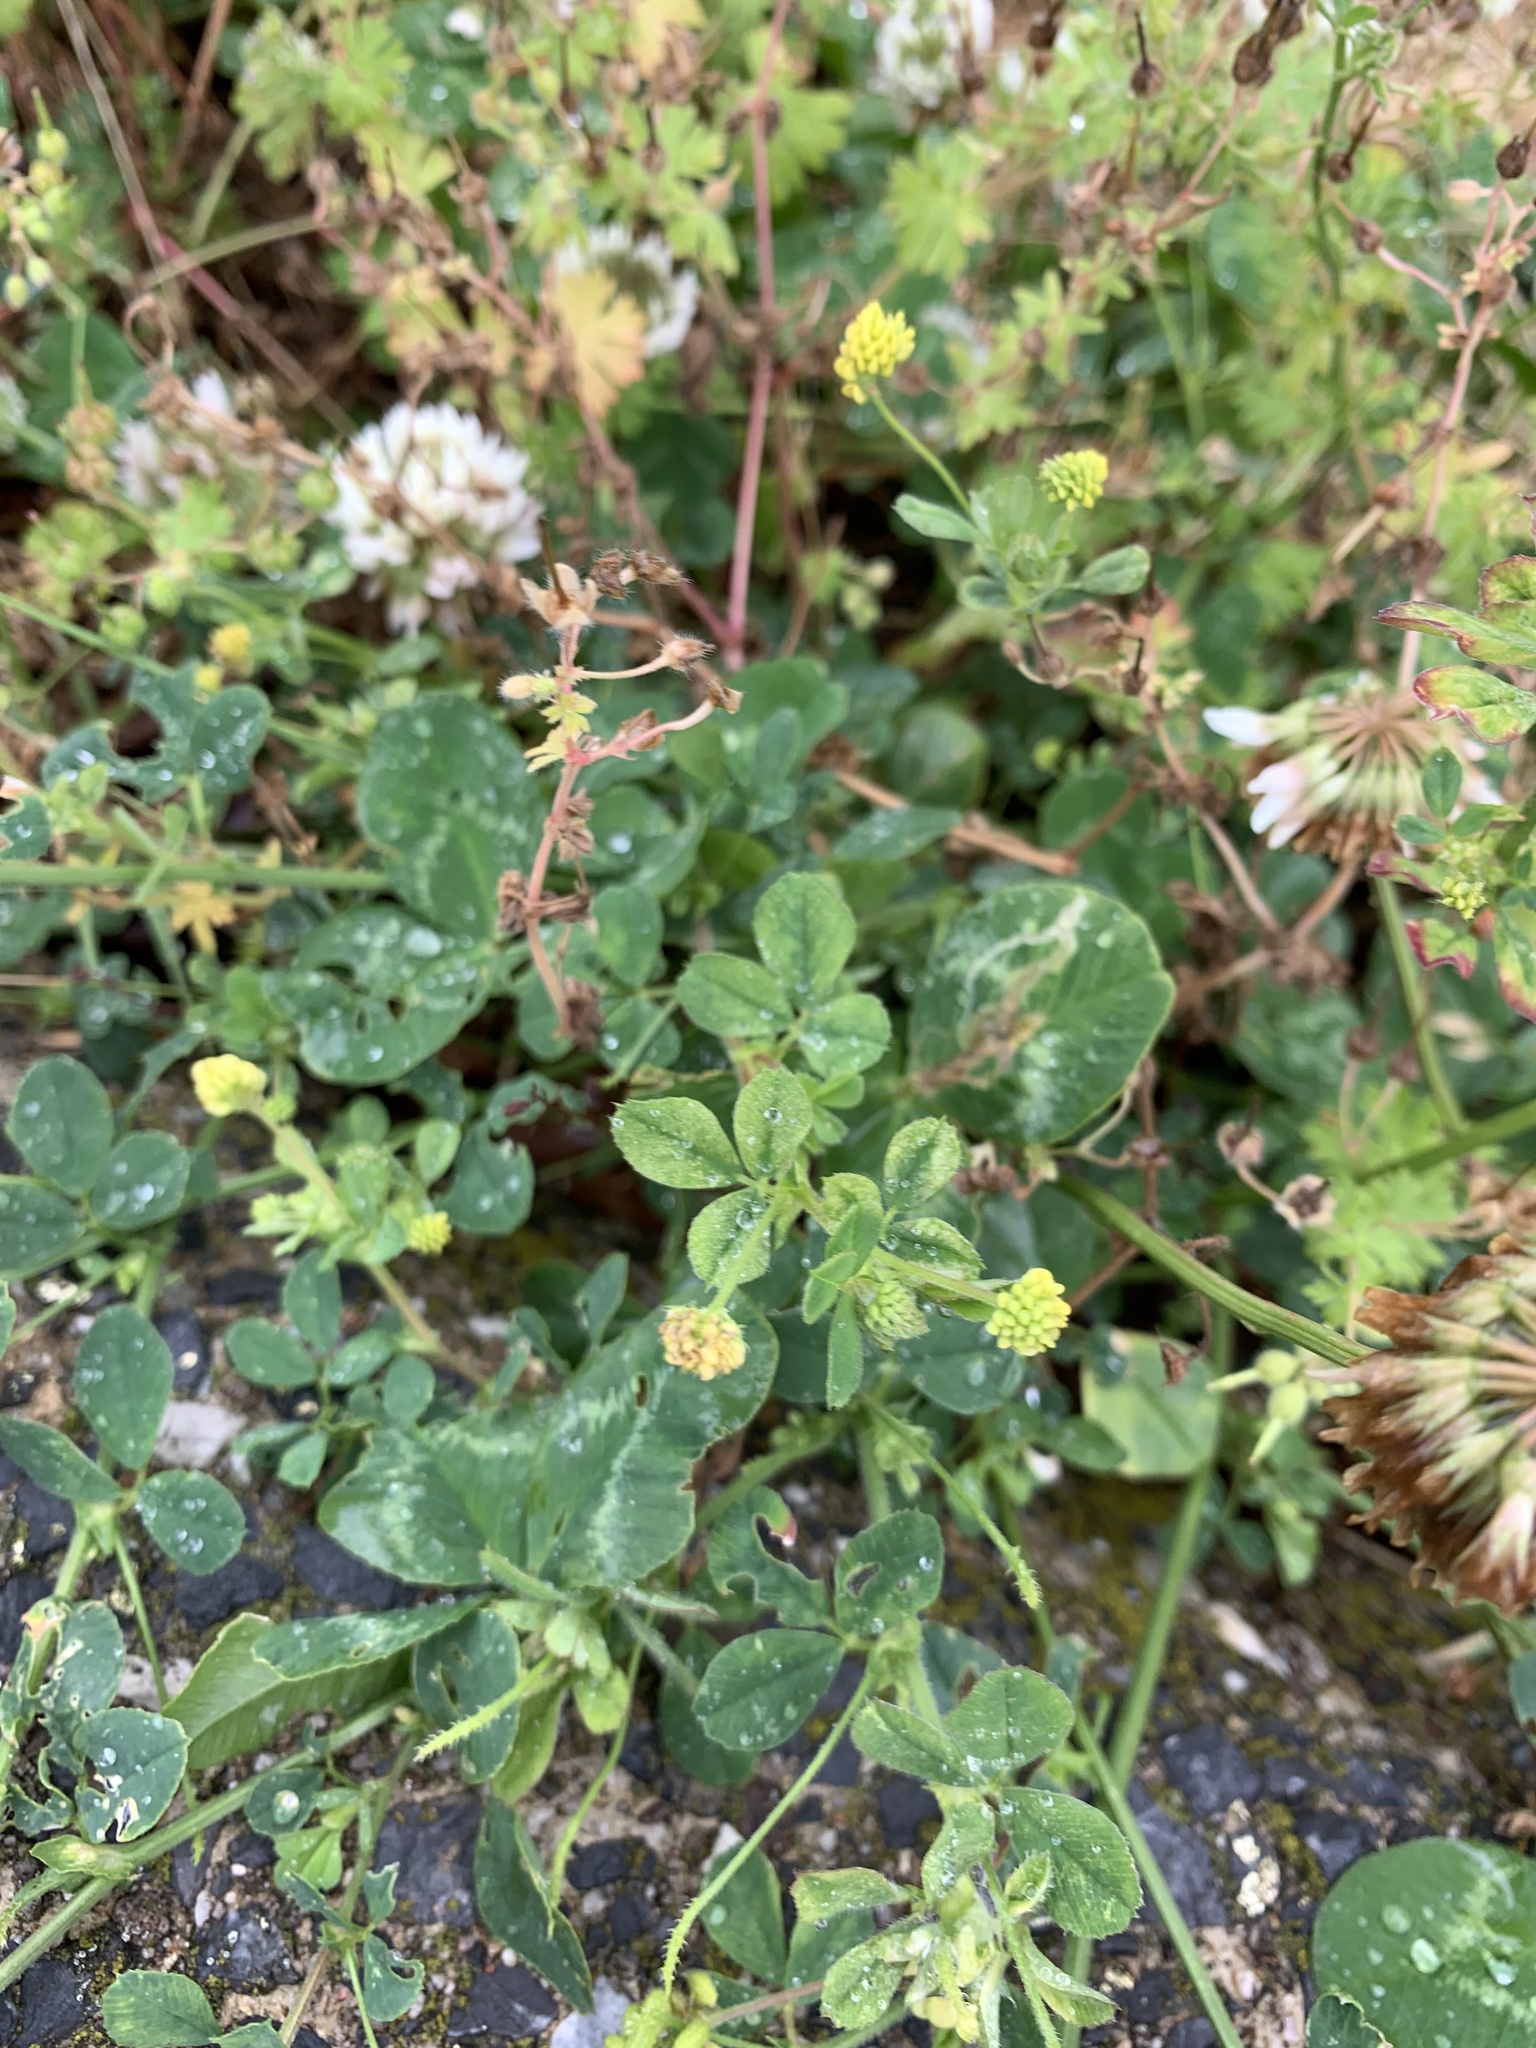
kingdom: Plantae
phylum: Tracheophyta
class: Magnoliopsida
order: Fabales
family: Fabaceae
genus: Medicago
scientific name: Medicago lupulina
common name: Black medick
